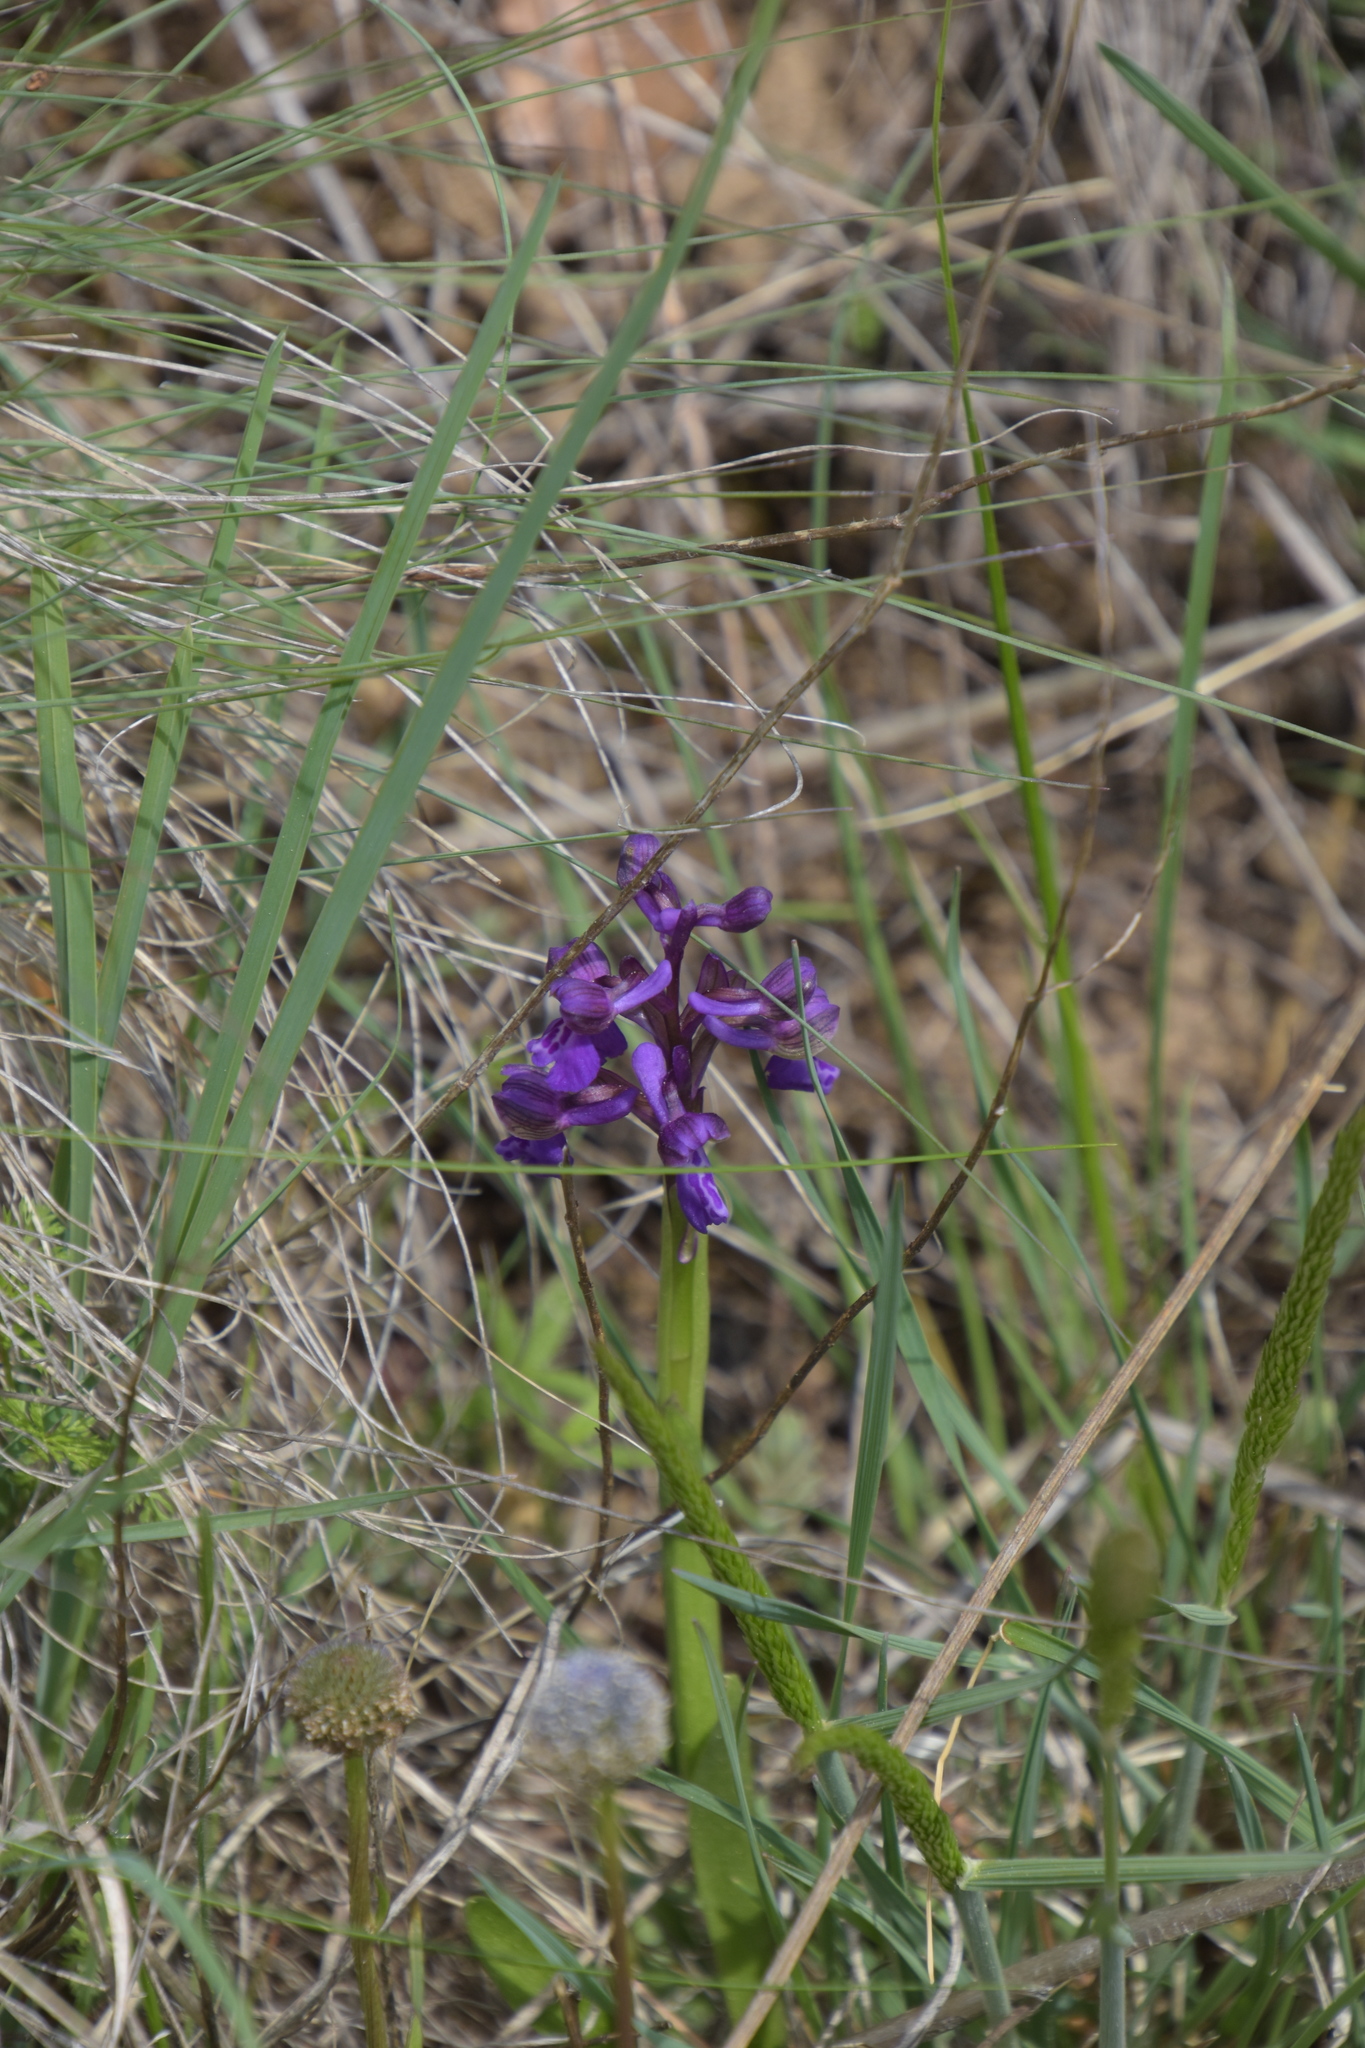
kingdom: Plantae
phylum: Tracheophyta
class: Liliopsida
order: Asparagales
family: Orchidaceae
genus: Anacamptis
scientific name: Anacamptis morio
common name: Green-winged orchid
